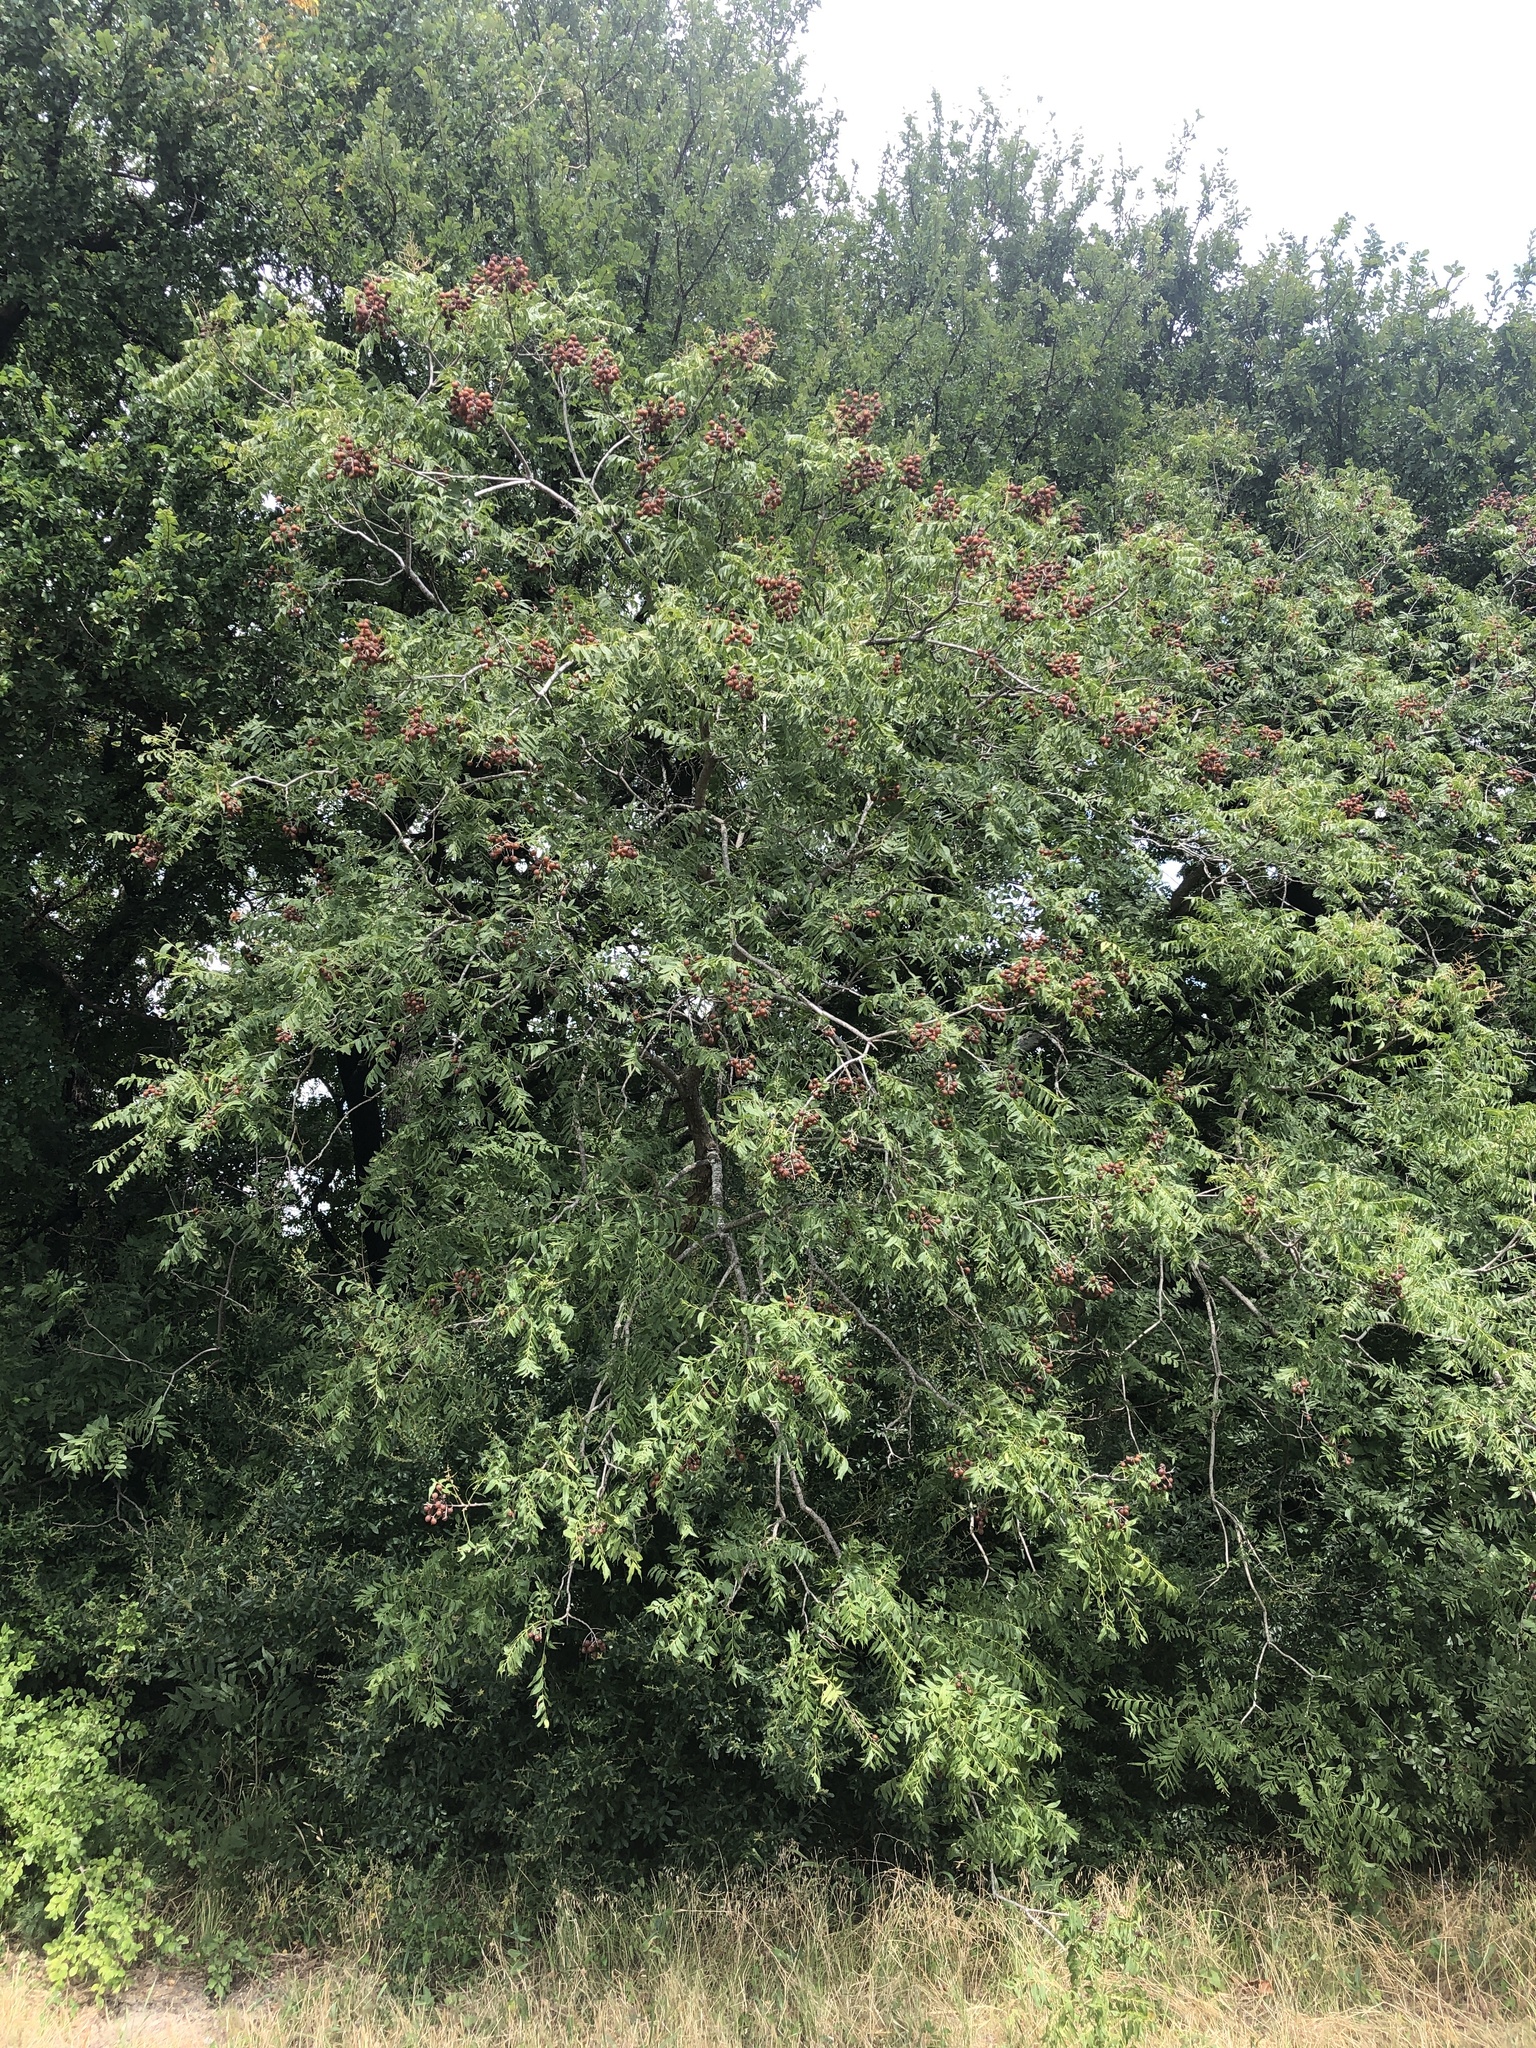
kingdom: Plantae
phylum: Tracheophyta
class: Magnoliopsida
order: Sapindales
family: Sapindaceae
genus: Sapindus
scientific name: Sapindus drummondii
